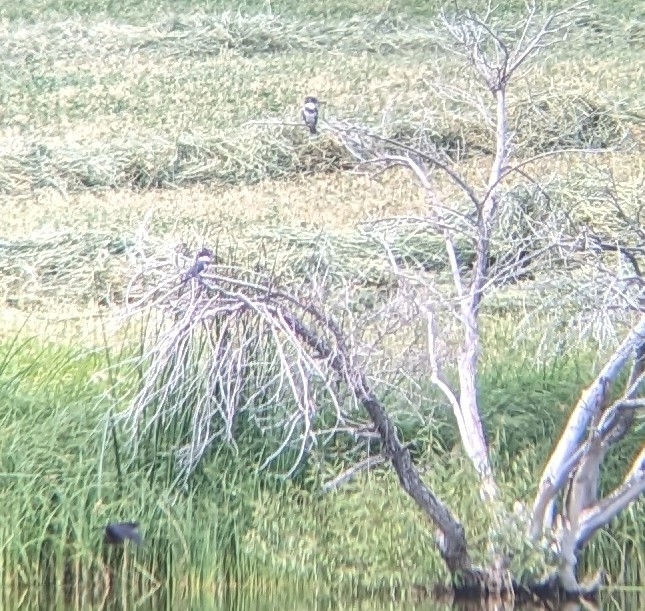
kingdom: Animalia
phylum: Chordata
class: Aves
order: Coraciiformes
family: Alcedinidae
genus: Megaceryle
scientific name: Megaceryle alcyon
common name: Belted kingfisher
